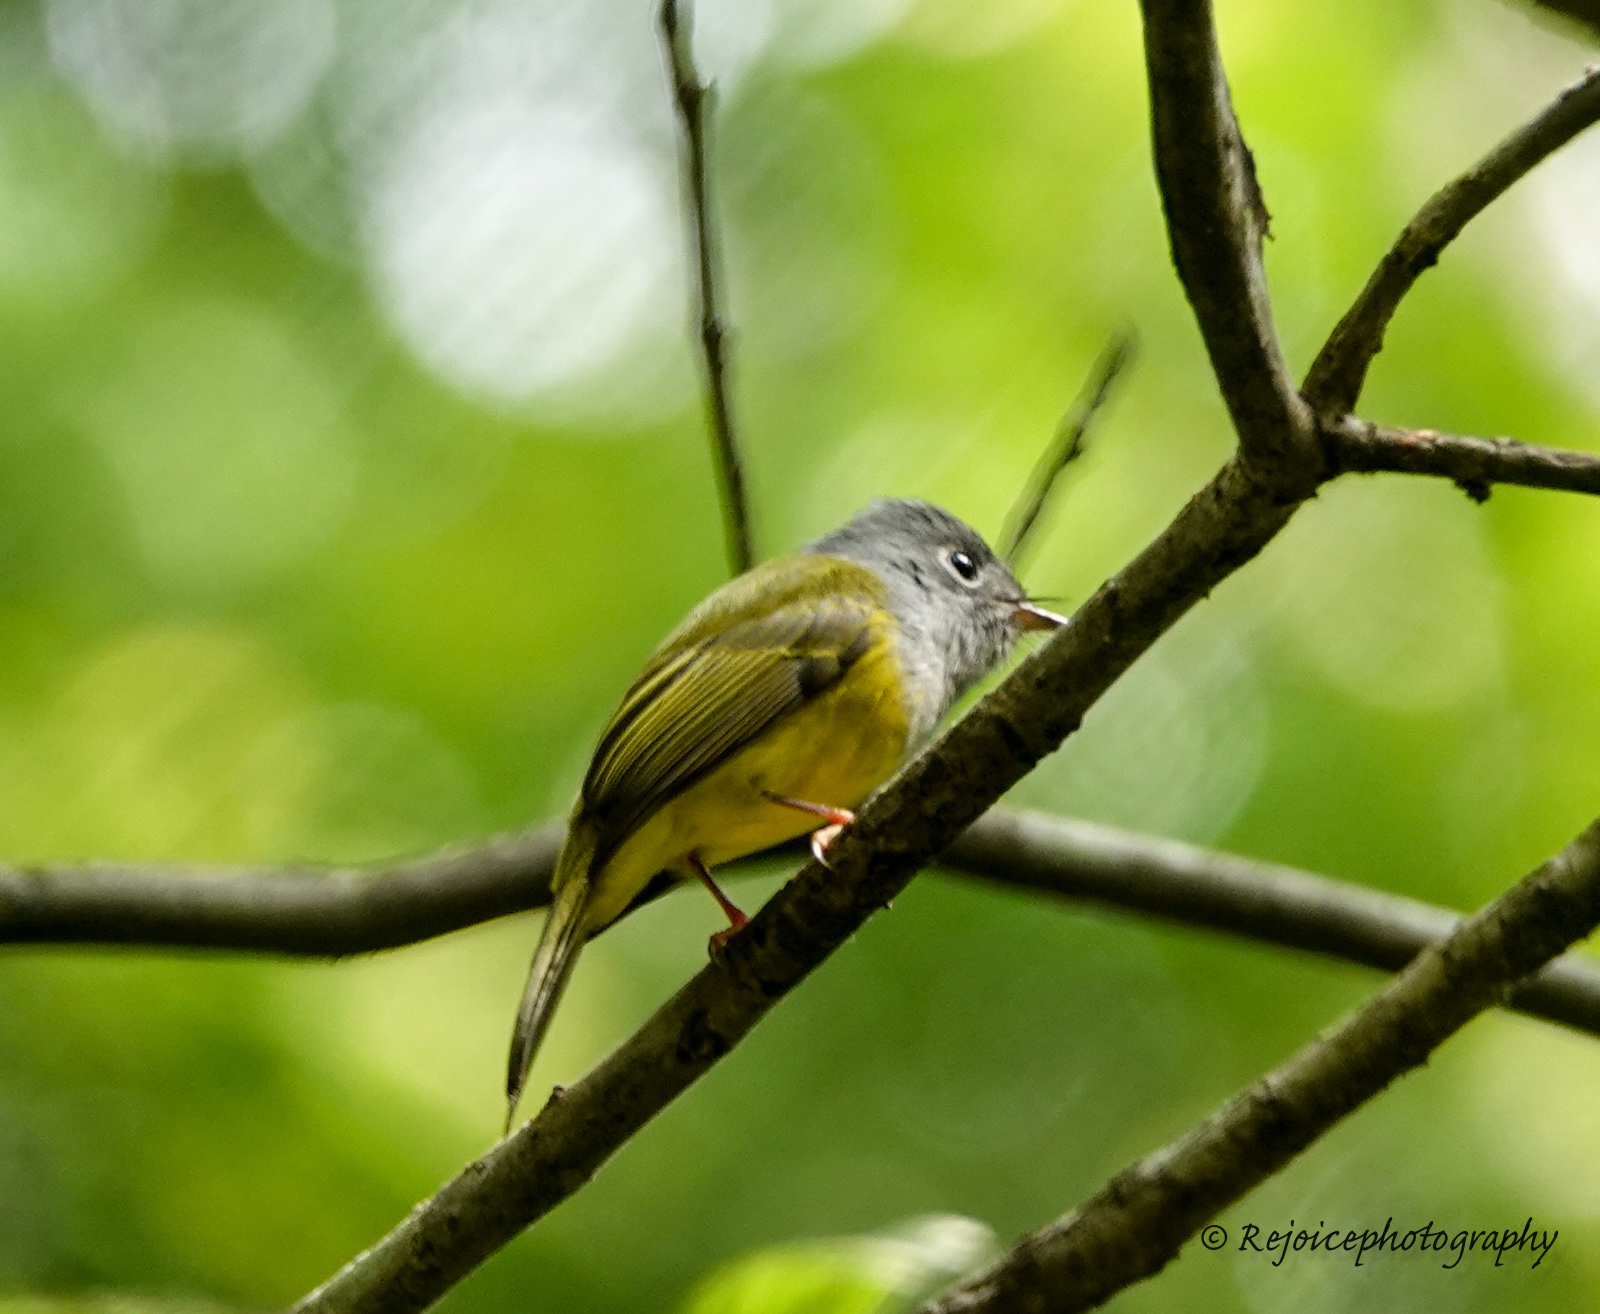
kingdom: Animalia
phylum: Chordata
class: Aves
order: Passeriformes
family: Stenostiridae
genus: Culicicapa
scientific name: Culicicapa ceylonensis
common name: Grey-headed canary-flycatcher
